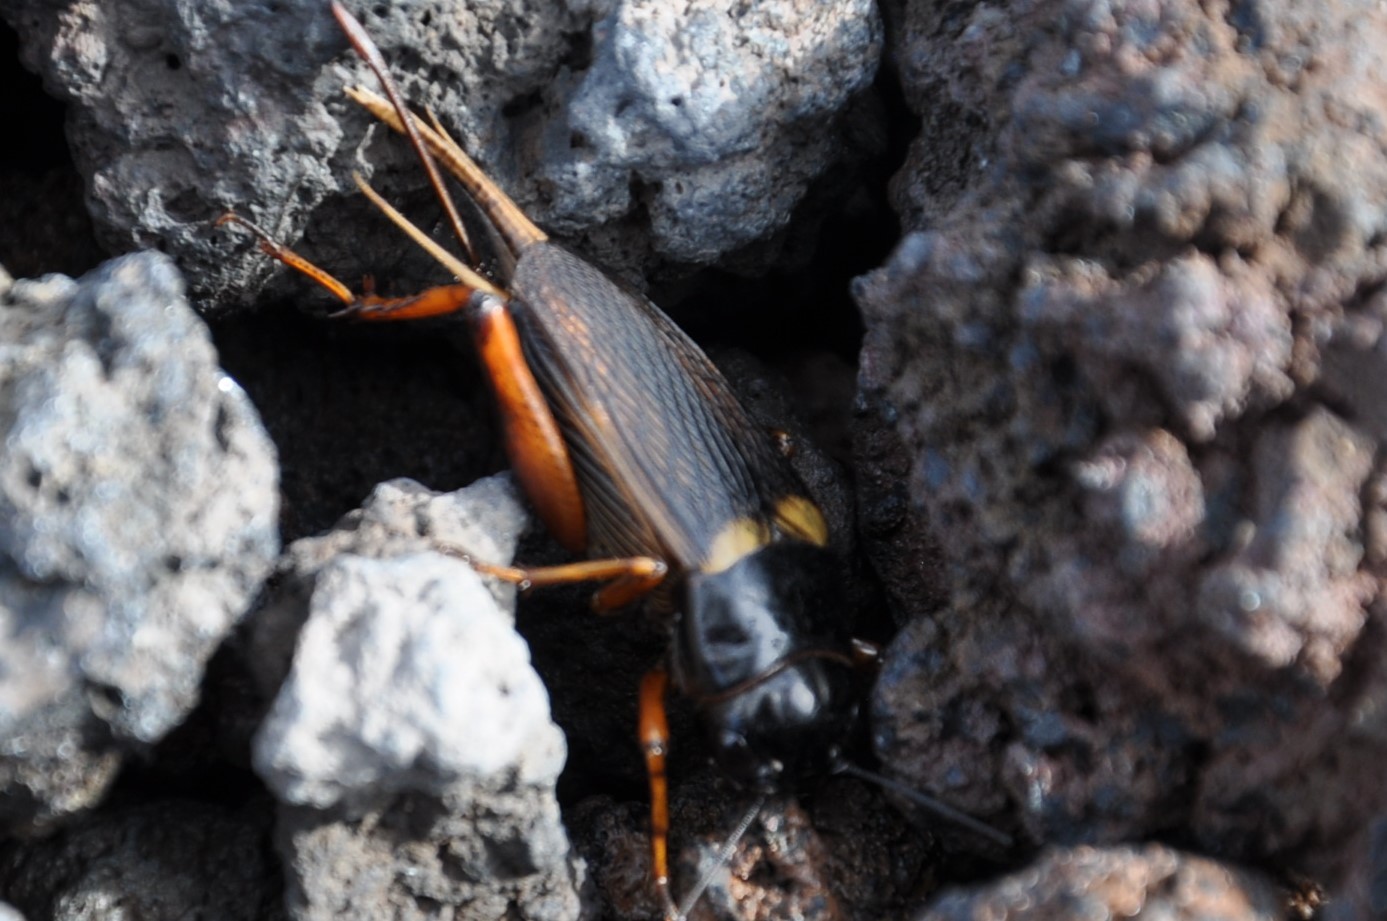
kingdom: Animalia
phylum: Arthropoda
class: Insecta
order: Orthoptera
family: Gryllidae
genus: Gryllus
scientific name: Gryllus bimaculatus
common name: Two-spotted cricket
